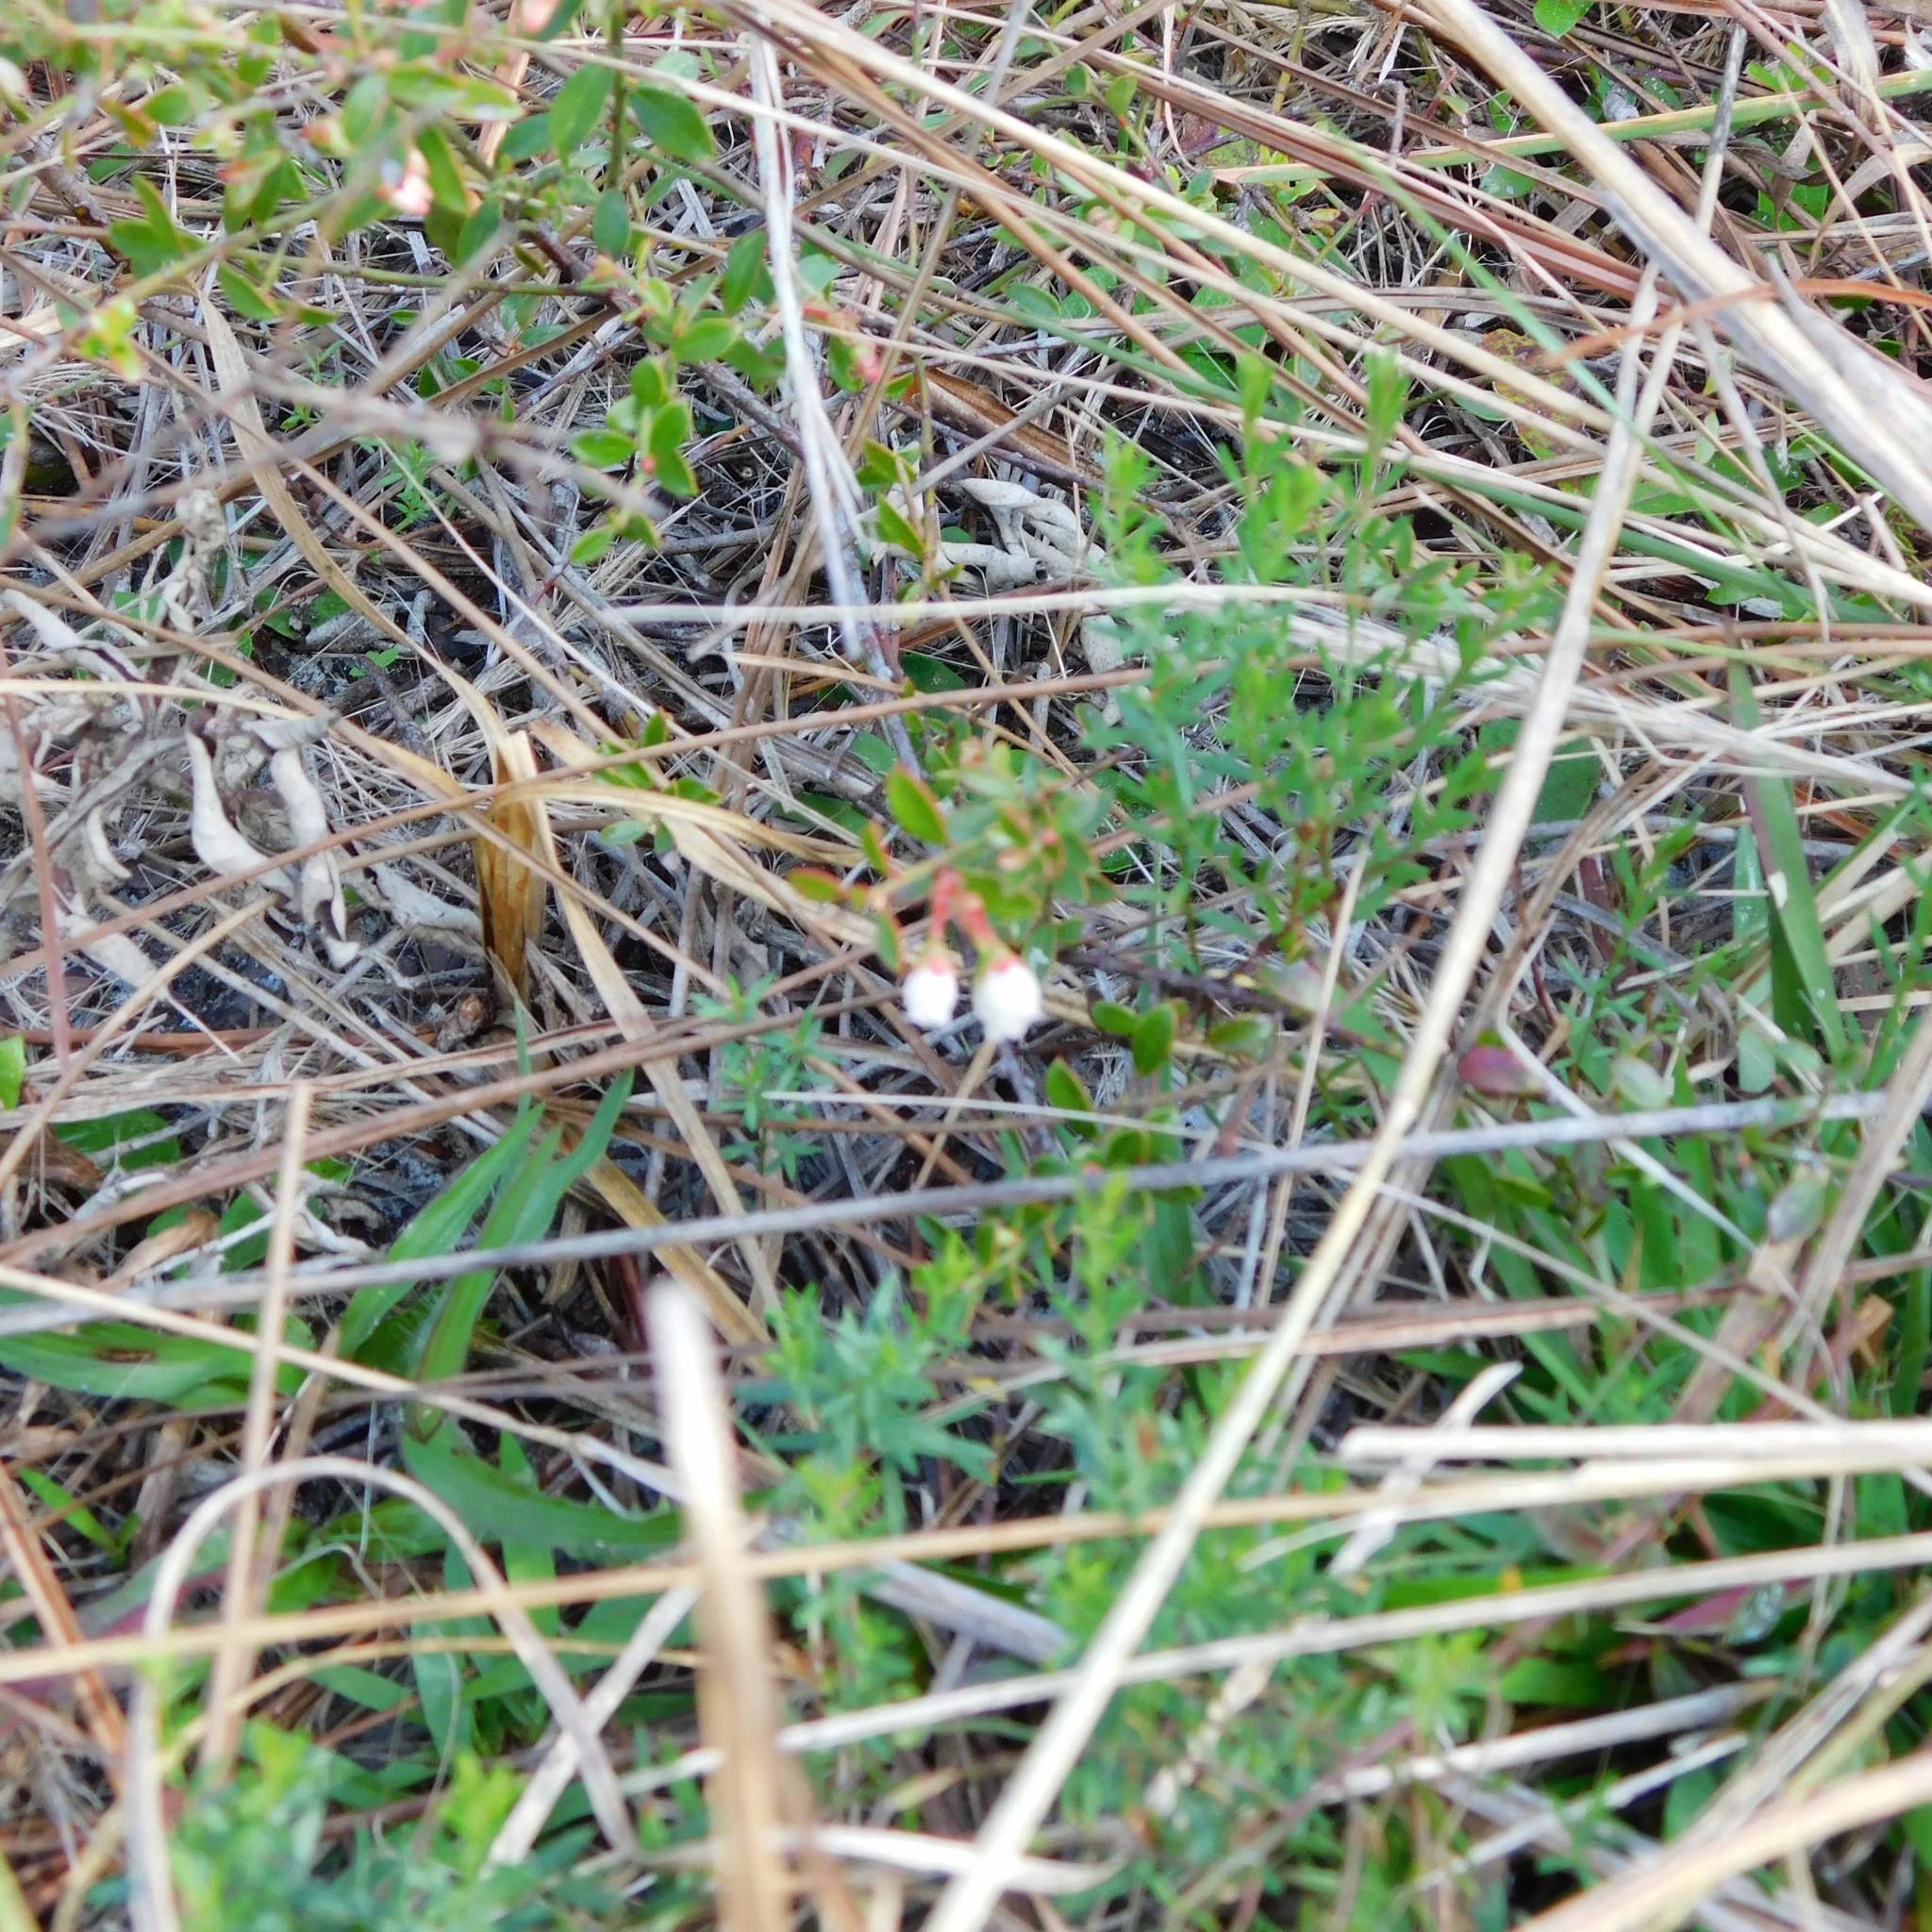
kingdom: Plantae
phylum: Tracheophyta
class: Magnoliopsida
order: Ericales
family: Ericaceae
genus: Vaccinium
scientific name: Vaccinium myrsinites
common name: Evergreen blueberry
